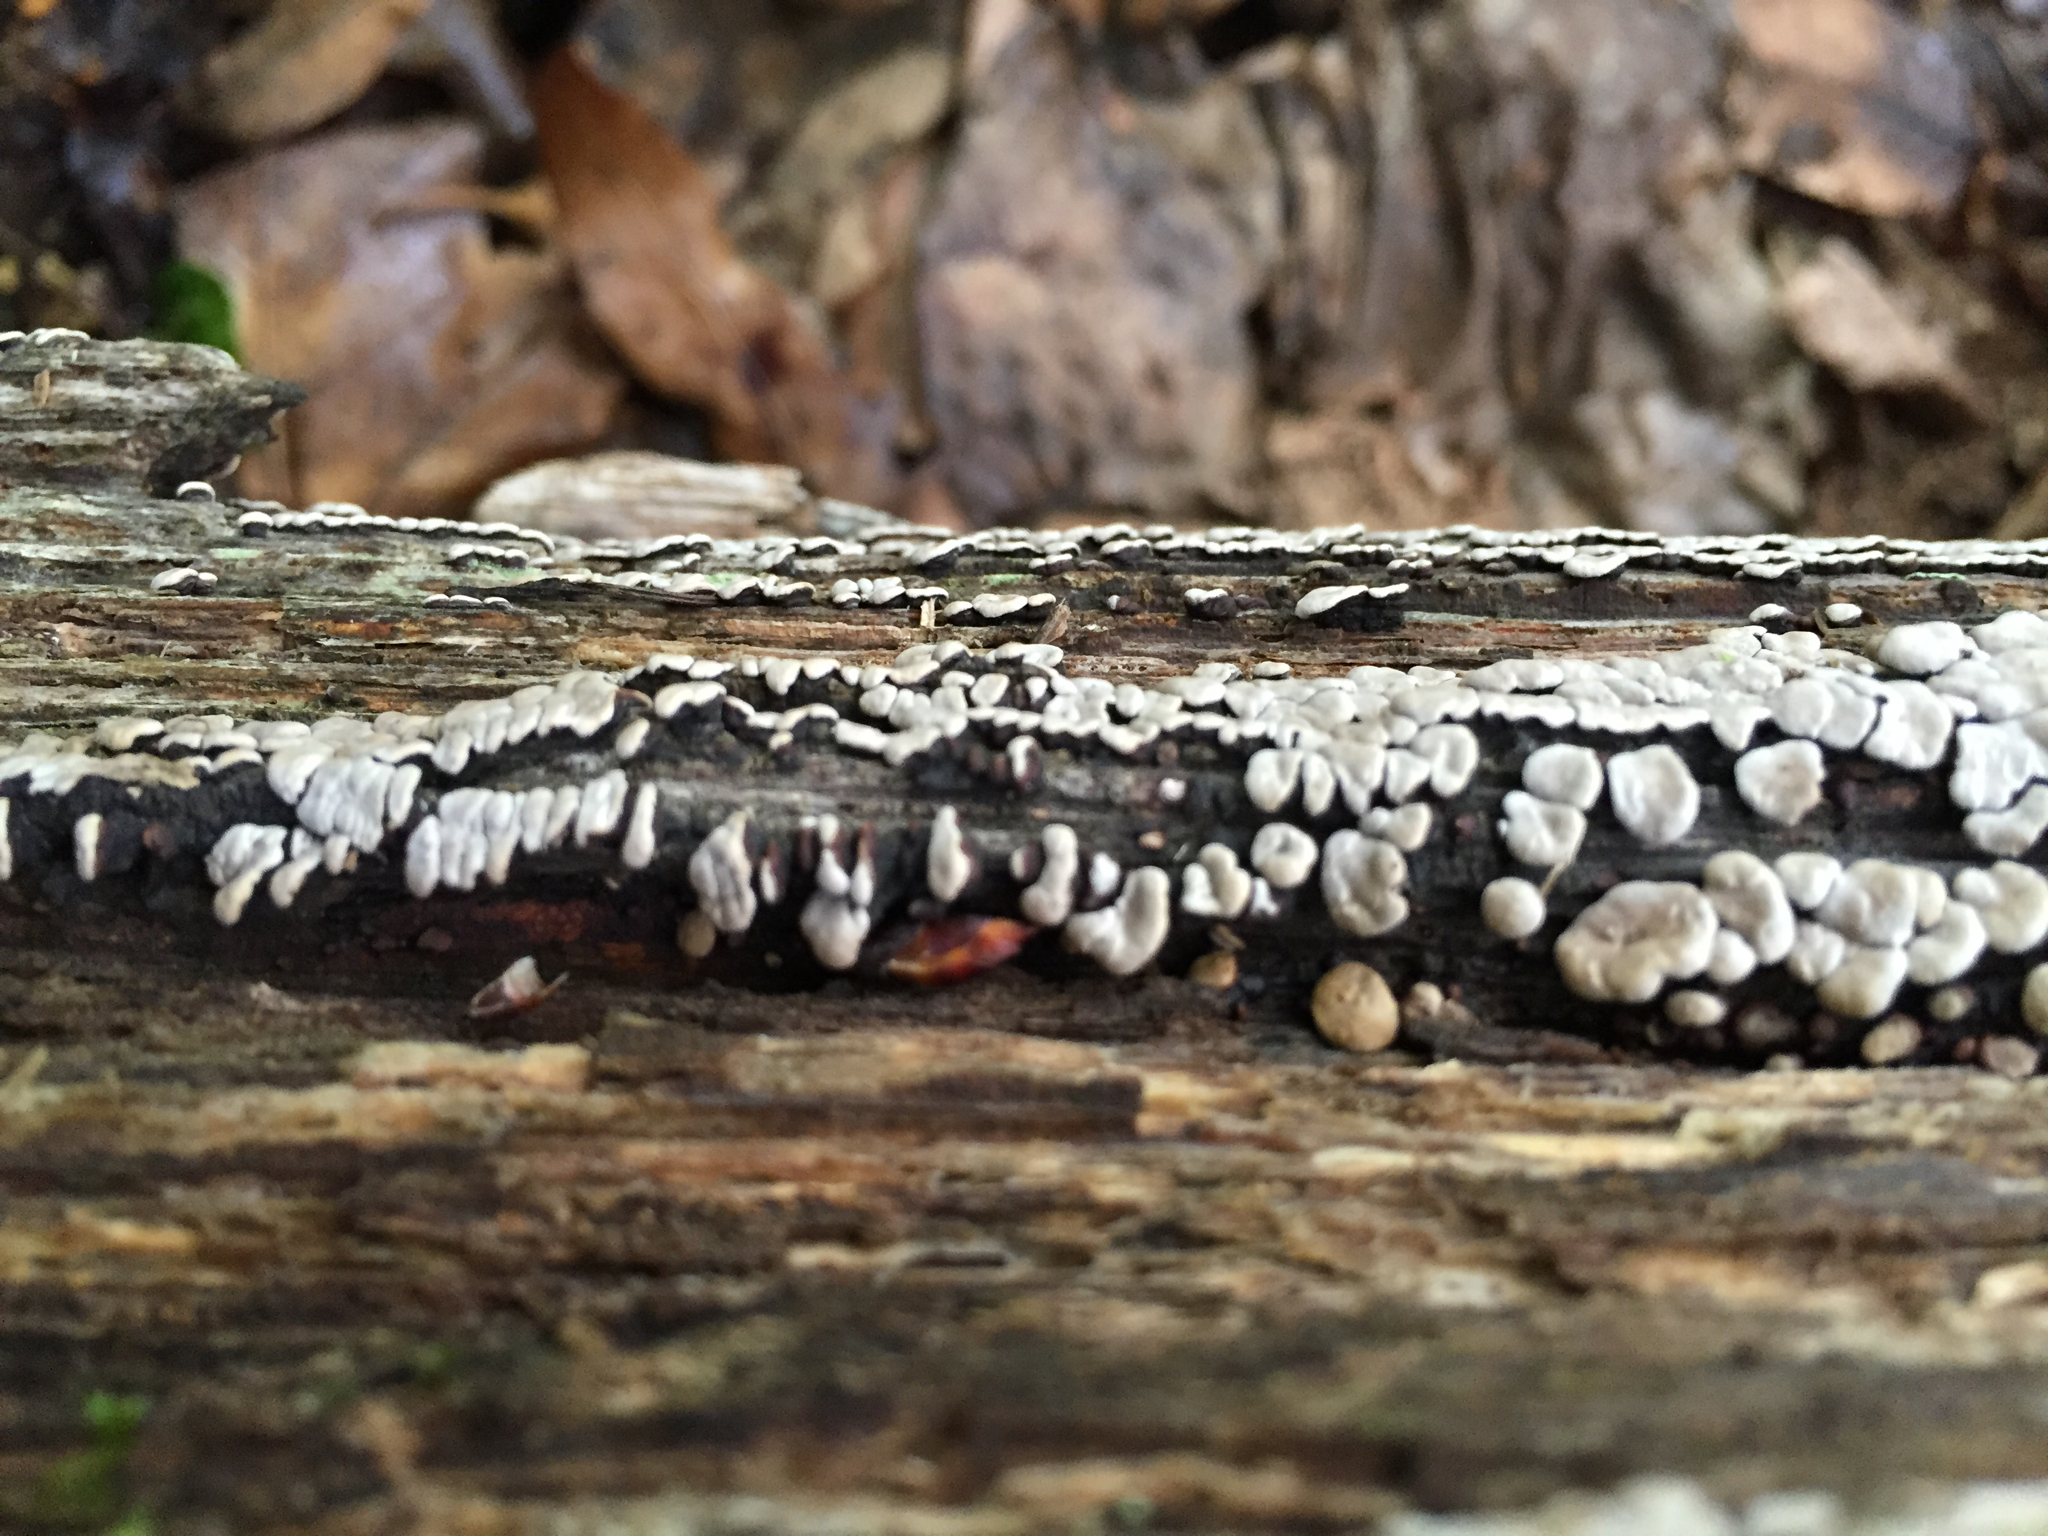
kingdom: Fungi
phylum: Basidiomycota
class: Agaricomycetes
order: Russulales
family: Stereaceae
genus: Xylobolus
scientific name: Xylobolus frustulatus
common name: Ceramic parchment
